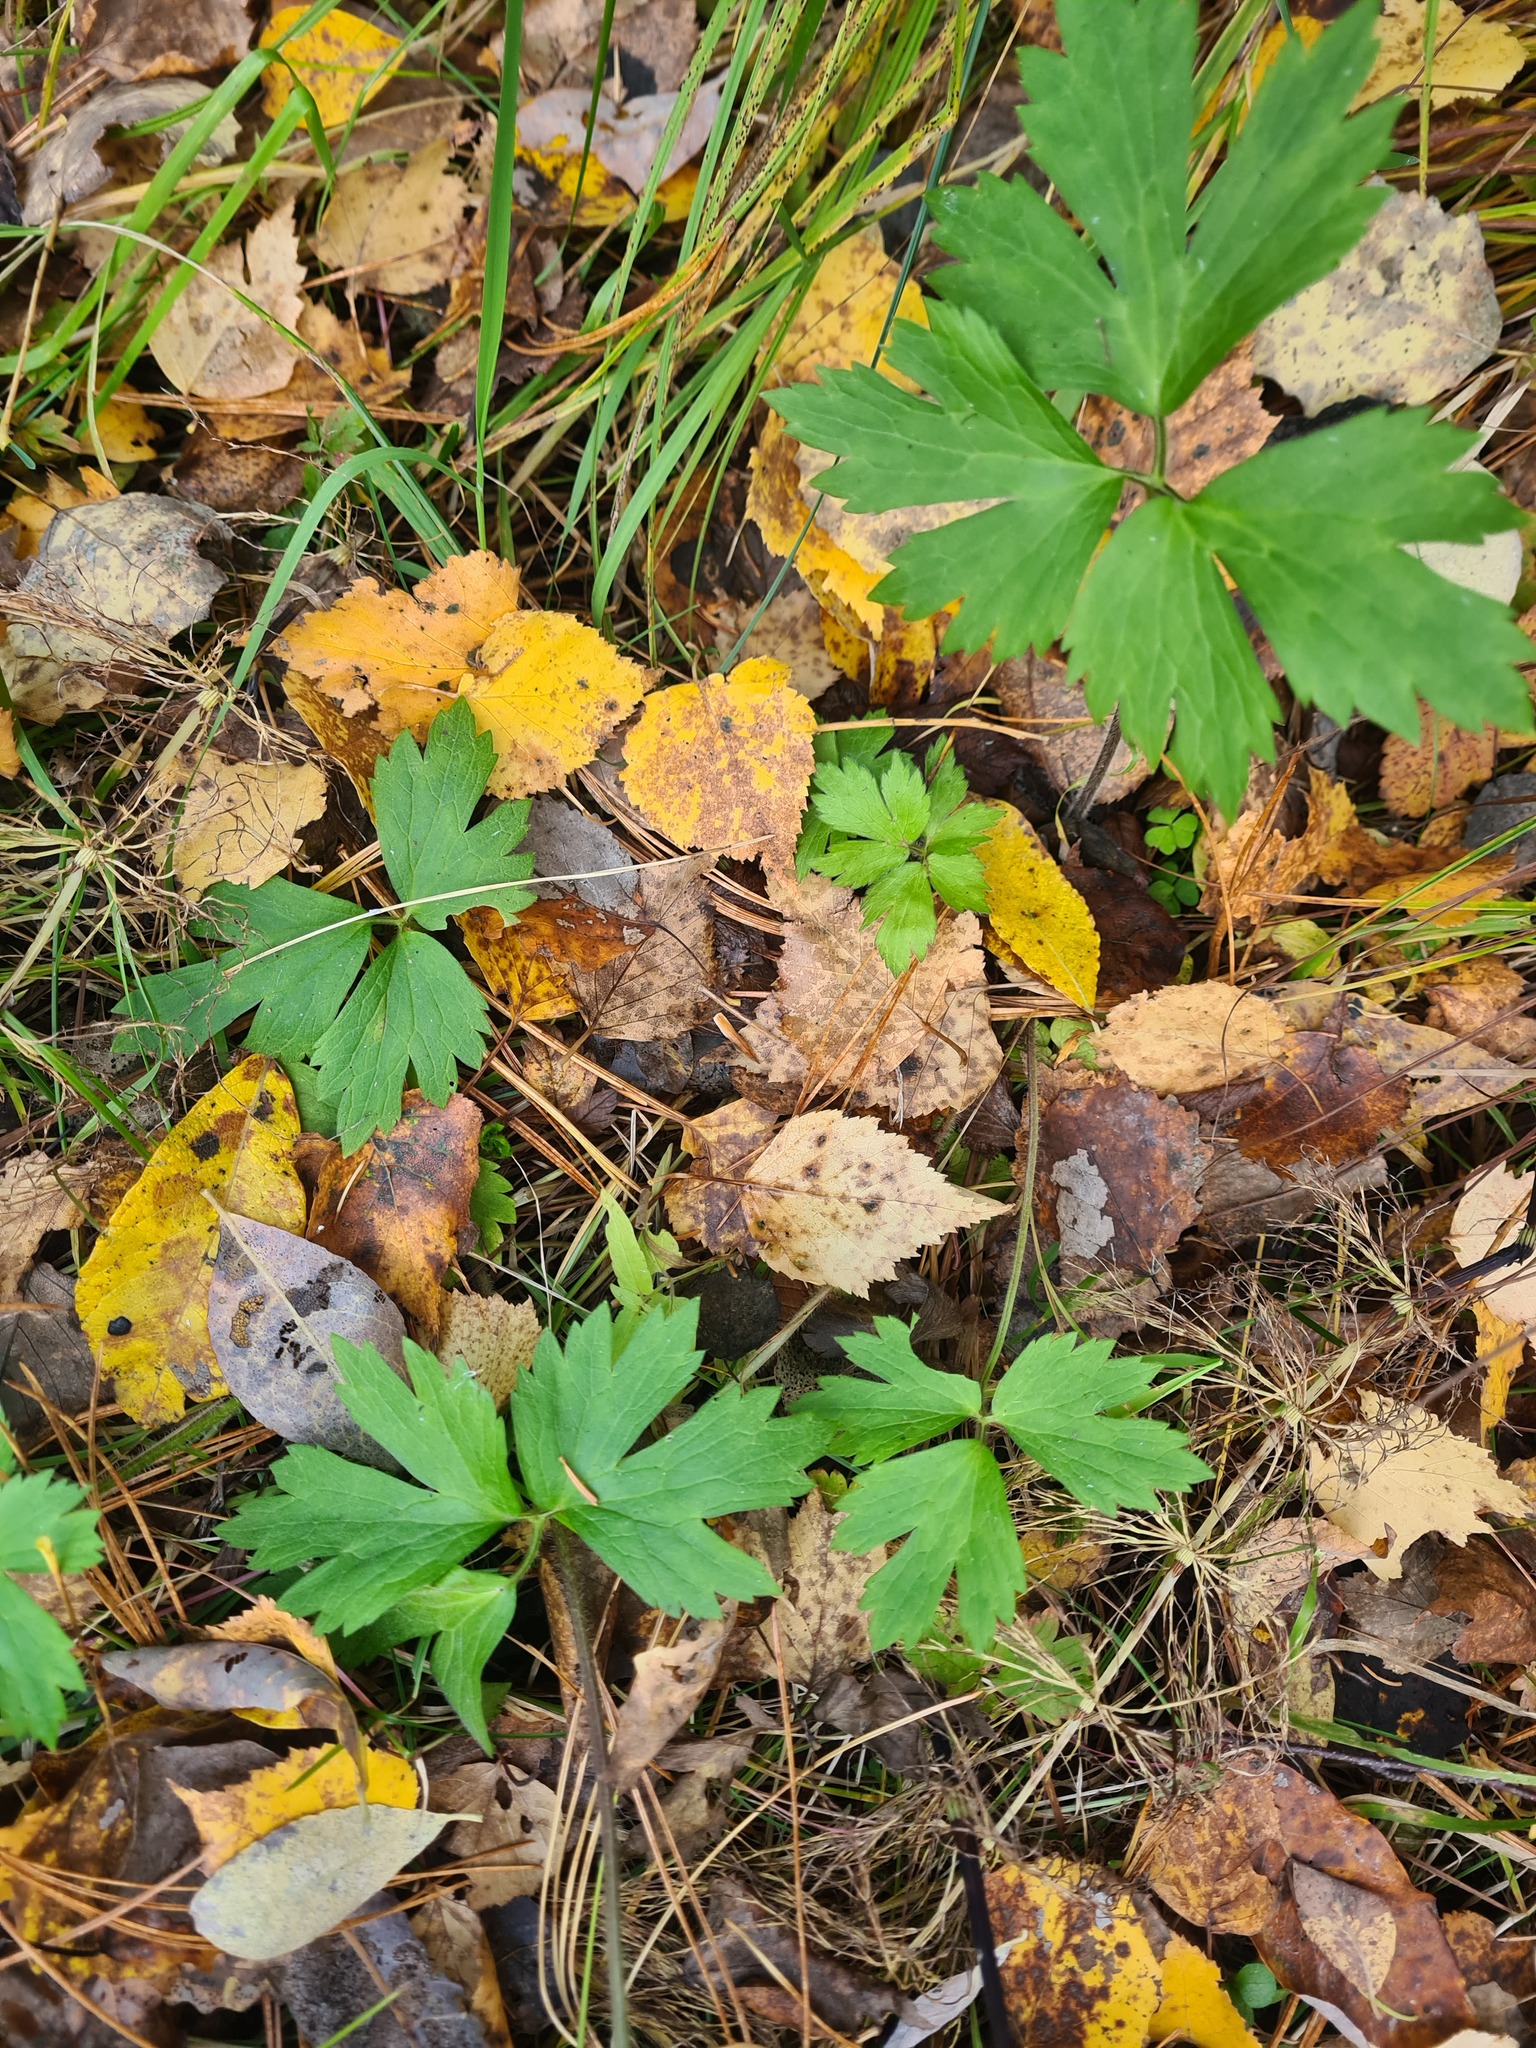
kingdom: Plantae
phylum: Tracheophyta
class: Magnoliopsida
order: Ranunculales
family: Ranunculaceae
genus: Ranunculus
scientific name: Ranunculus repens
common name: Creeping buttercup
